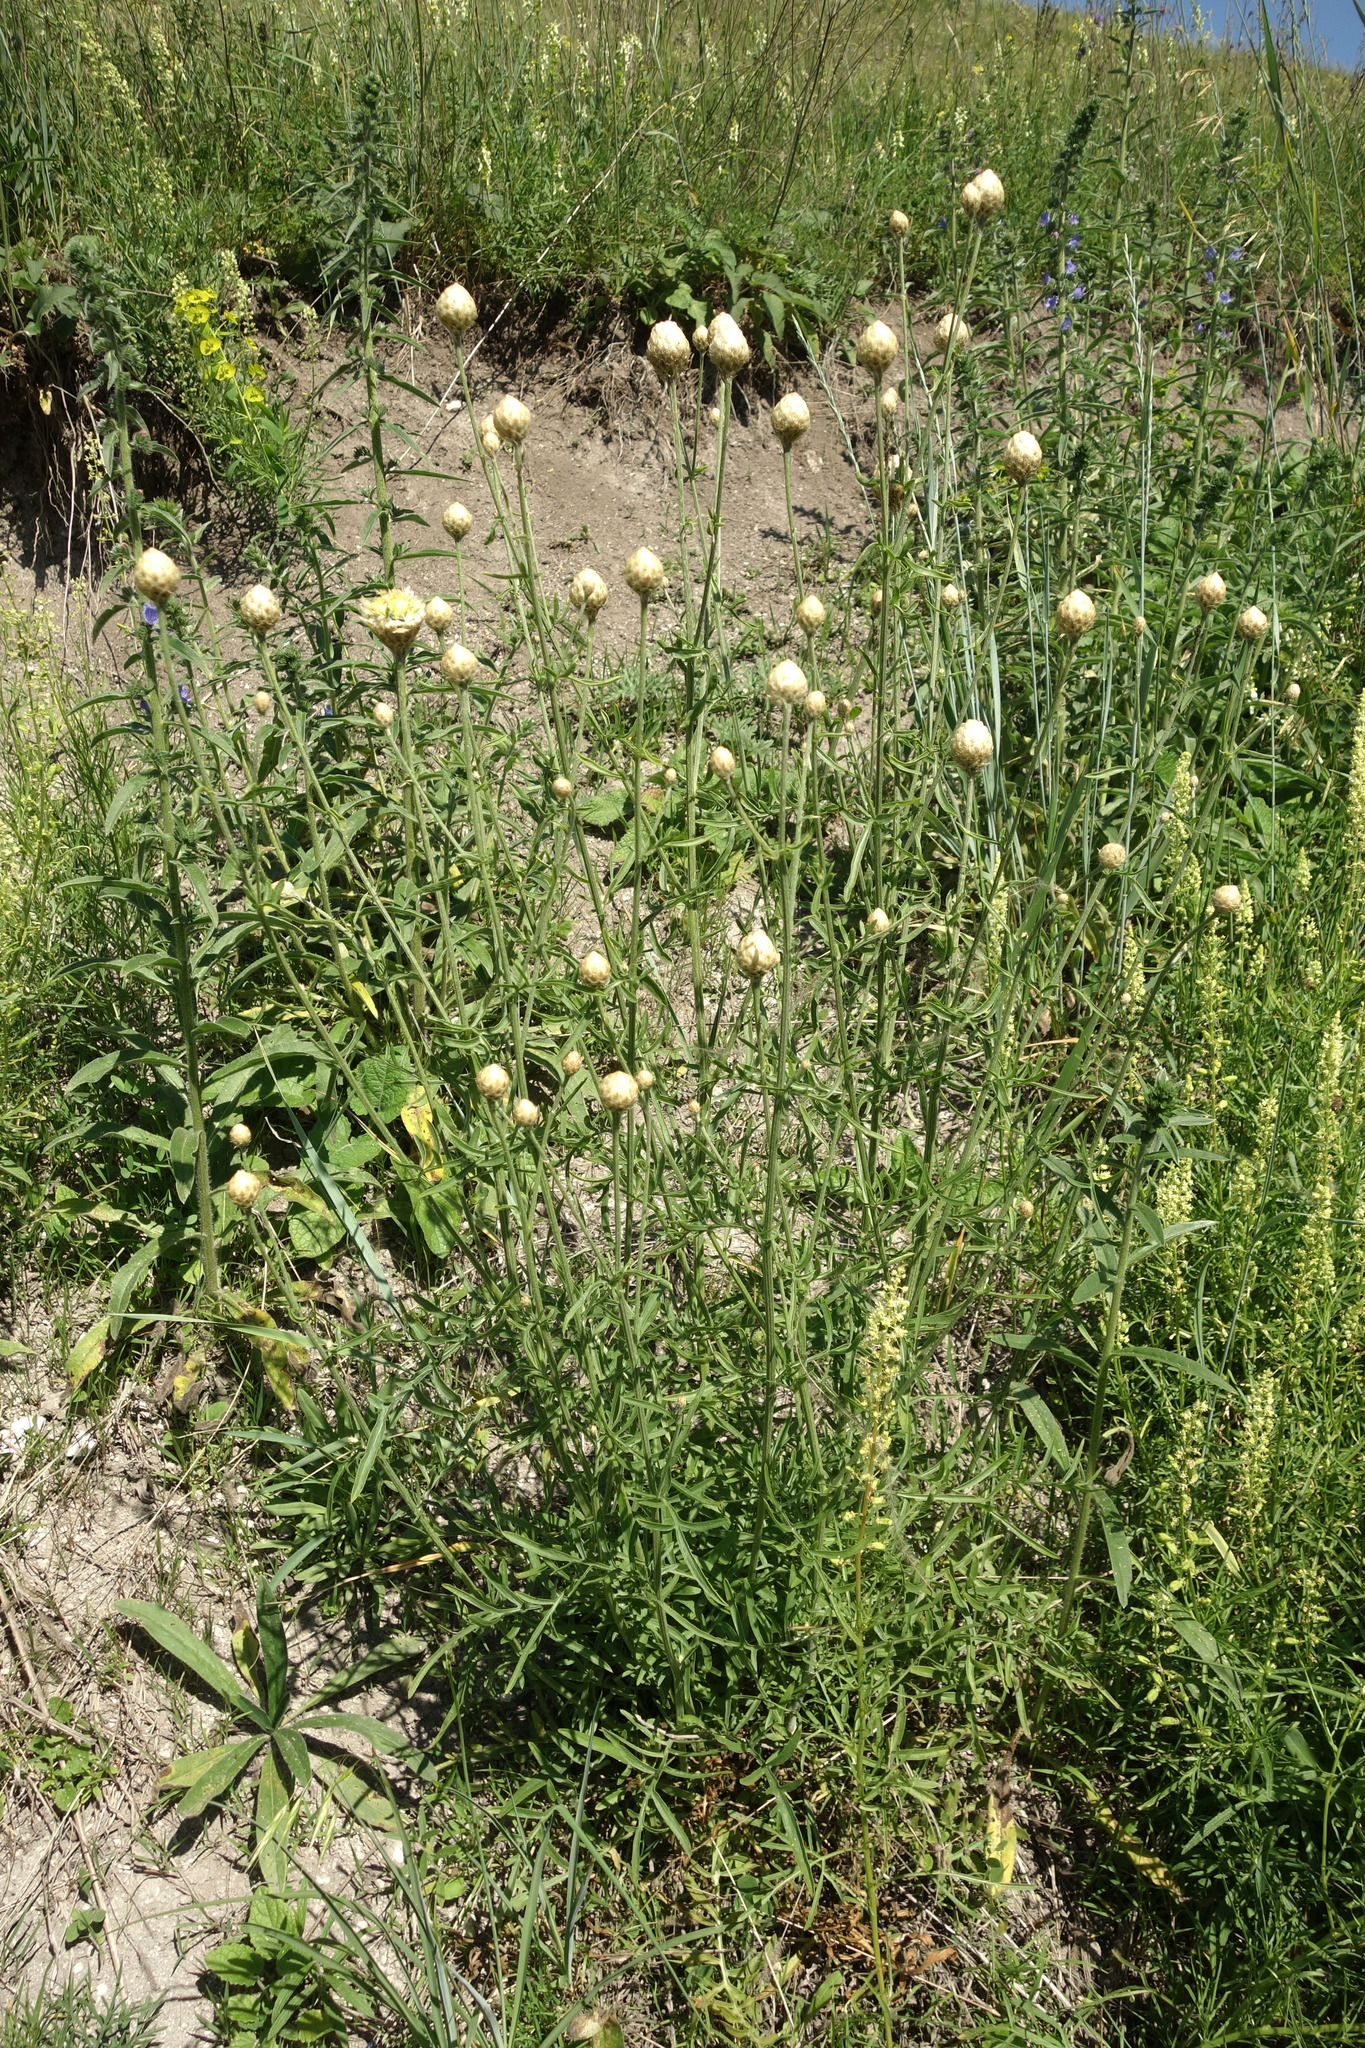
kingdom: Plantae
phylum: Tracheophyta
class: Magnoliopsida
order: Asterales
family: Asteraceae
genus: Centaurea
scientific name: Centaurea orientalis
